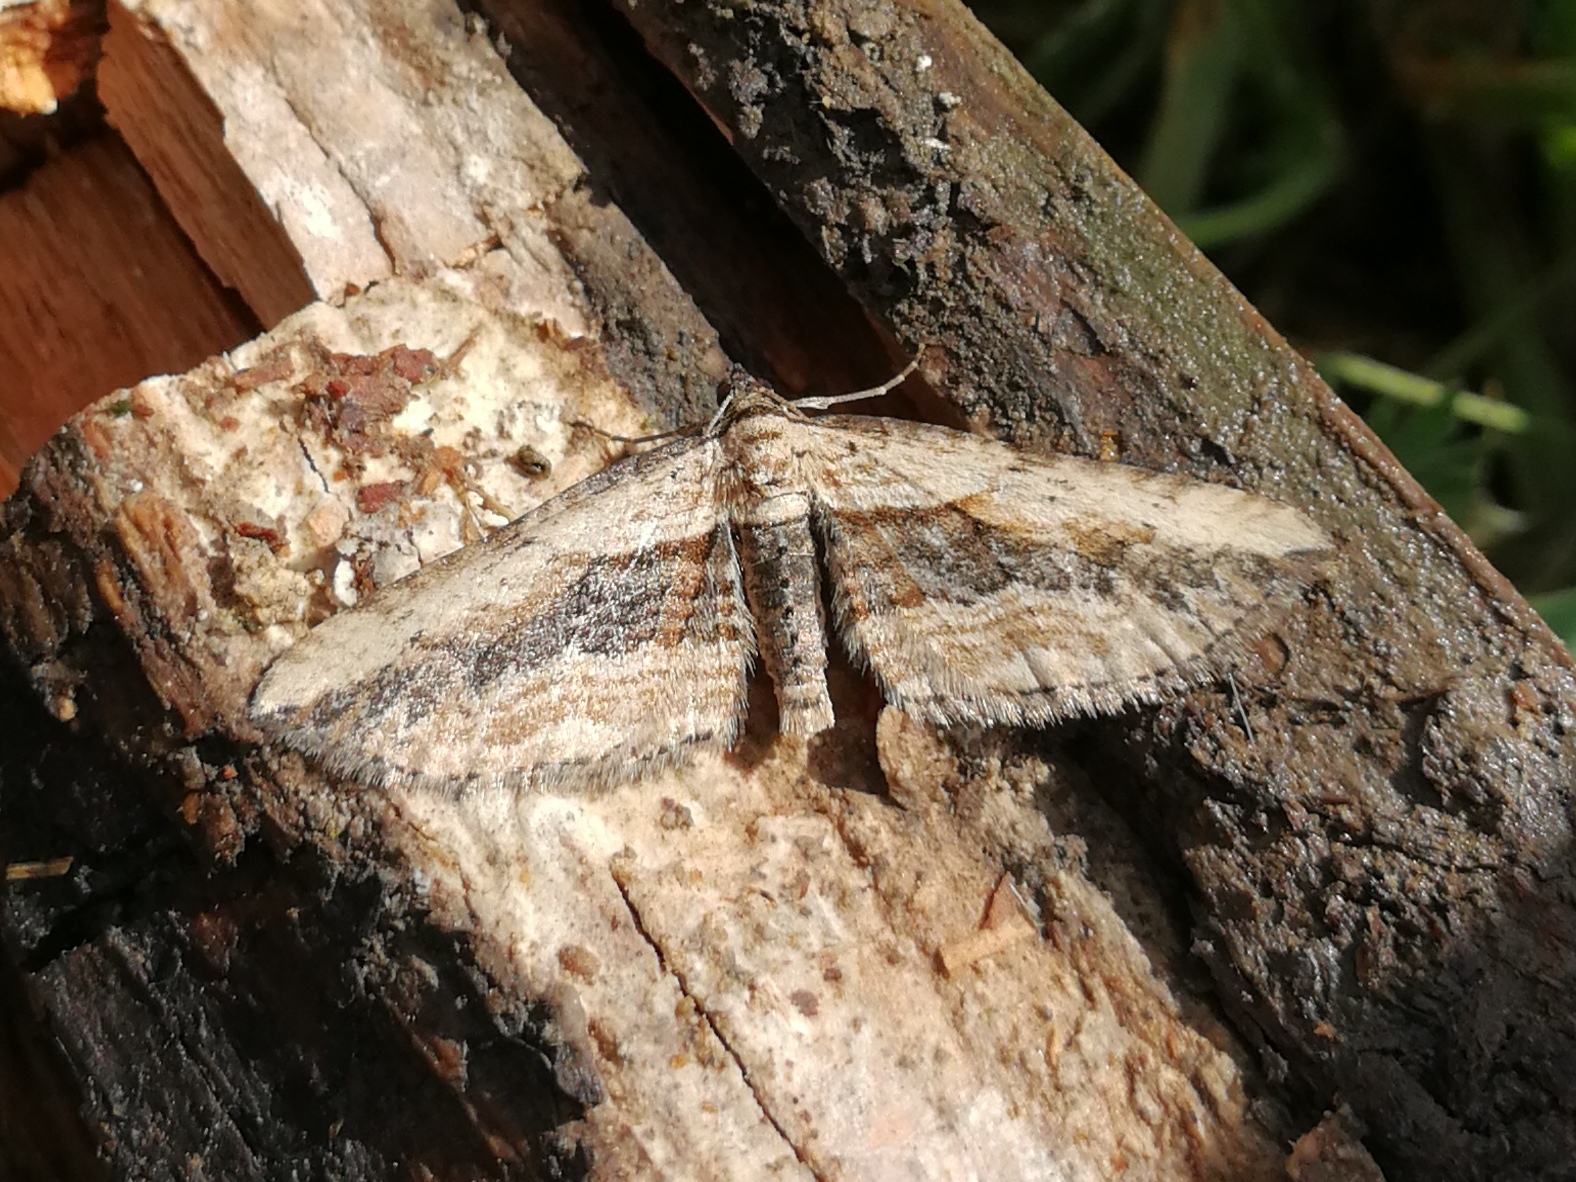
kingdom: Animalia
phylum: Arthropoda
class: Insecta
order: Lepidoptera
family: Geometridae
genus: Horisme
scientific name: Horisme vitalbata
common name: Small waved umber
